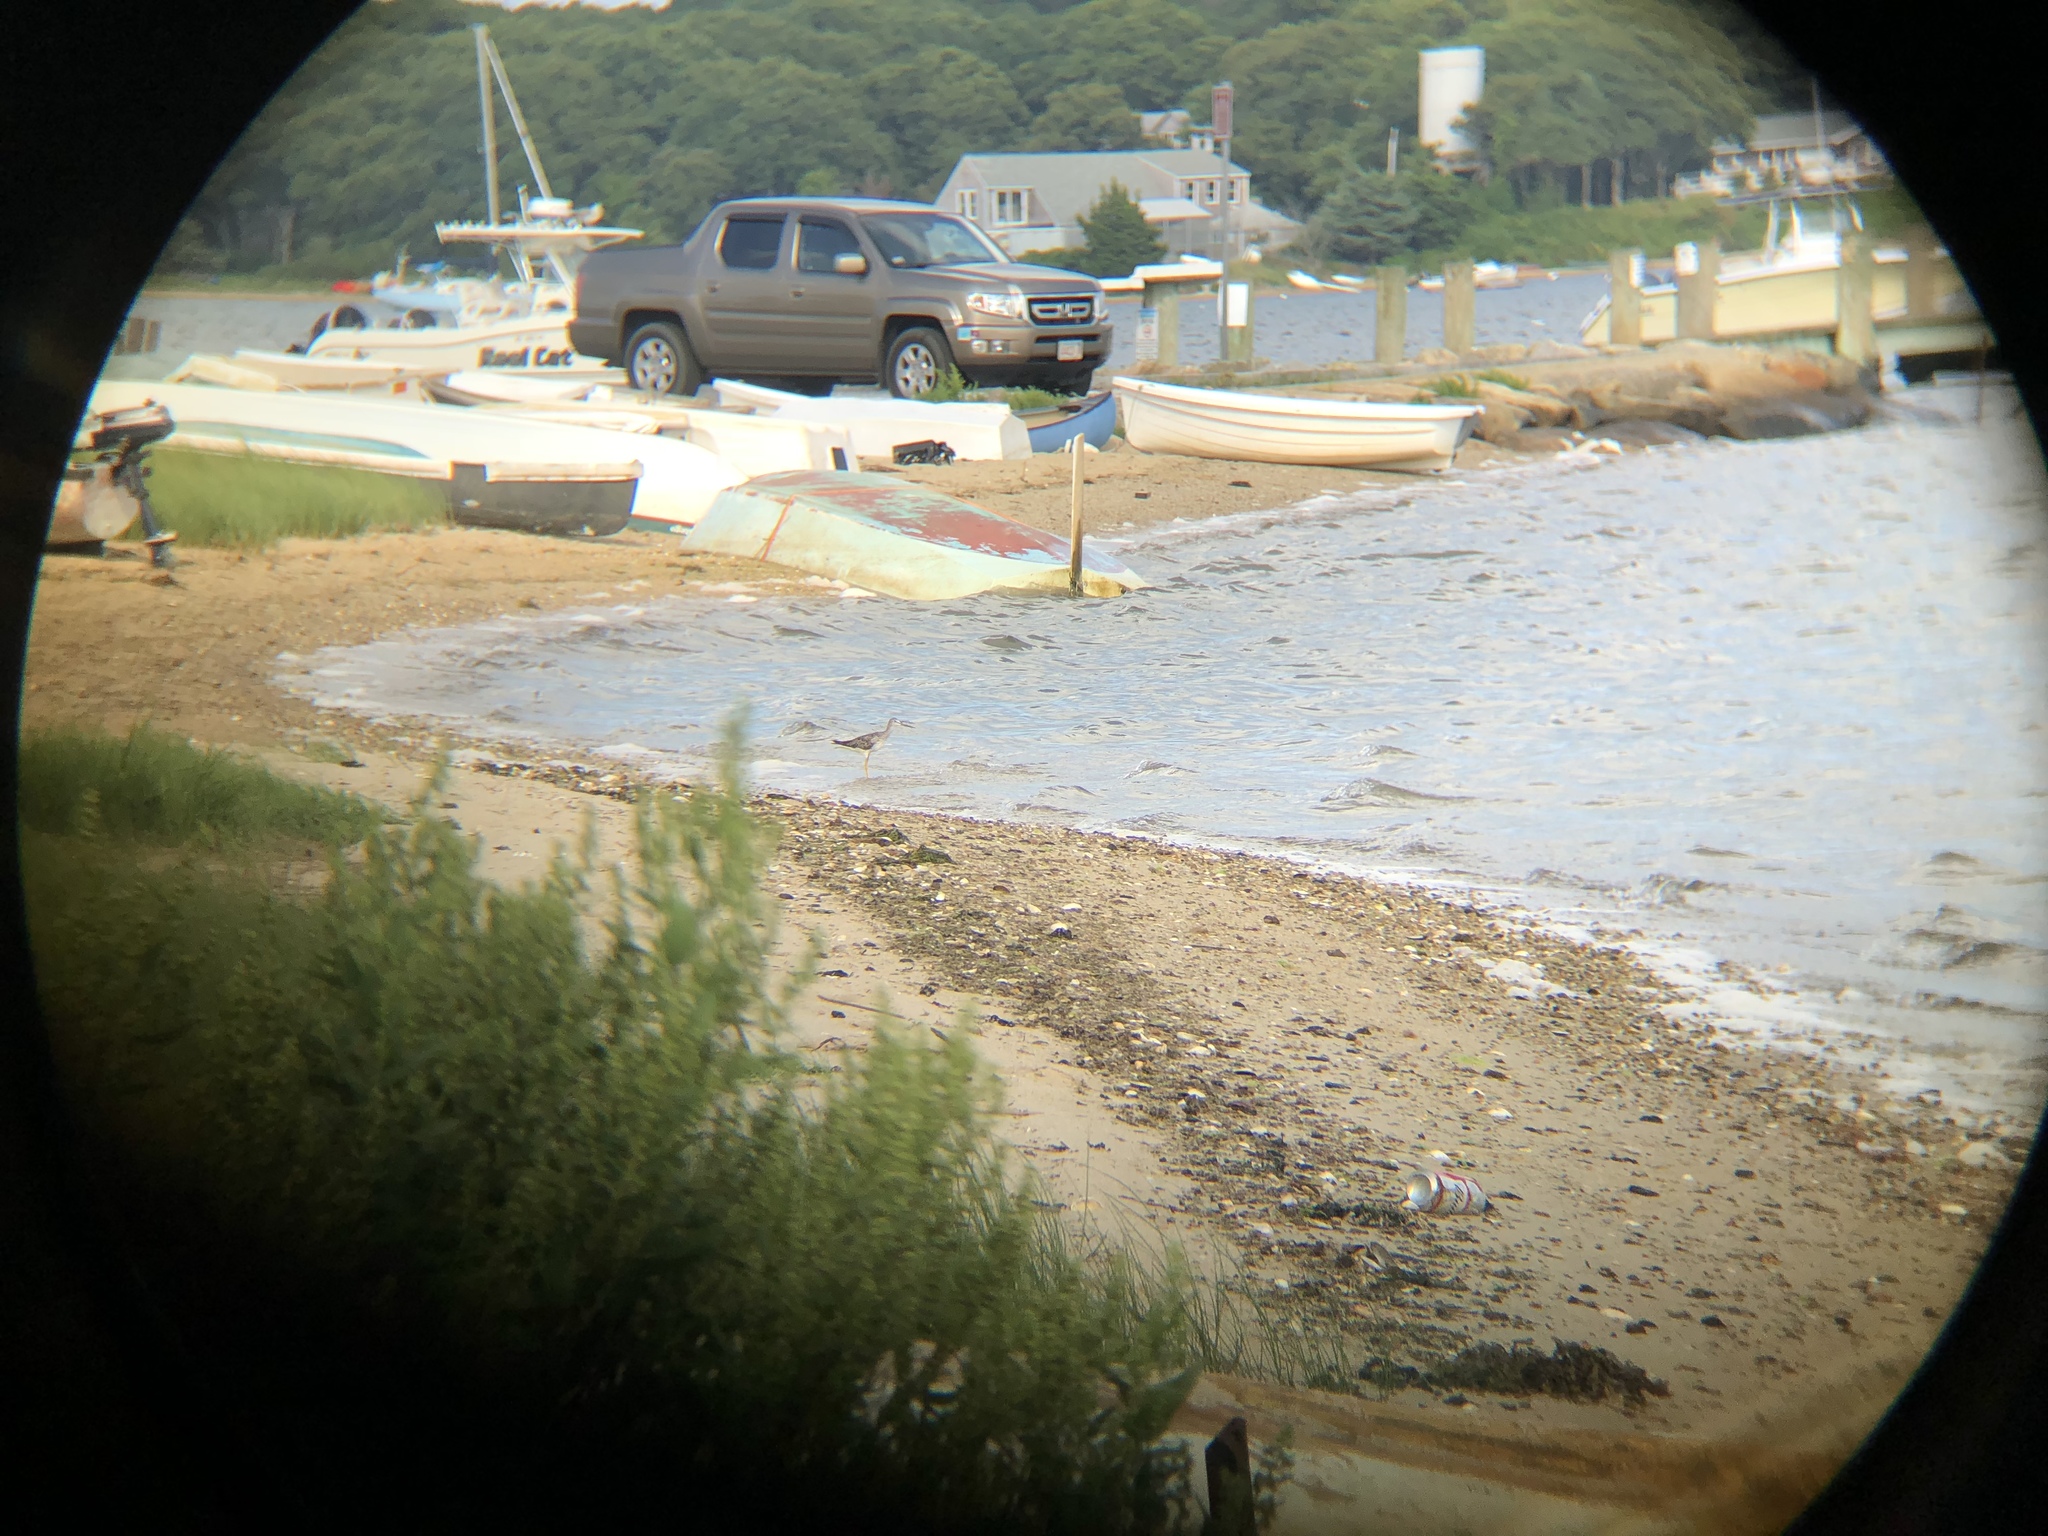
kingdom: Animalia
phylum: Chordata
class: Aves
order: Charadriiformes
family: Scolopacidae
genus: Tringa
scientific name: Tringa melanoleuca
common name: Greater yellowlegs
